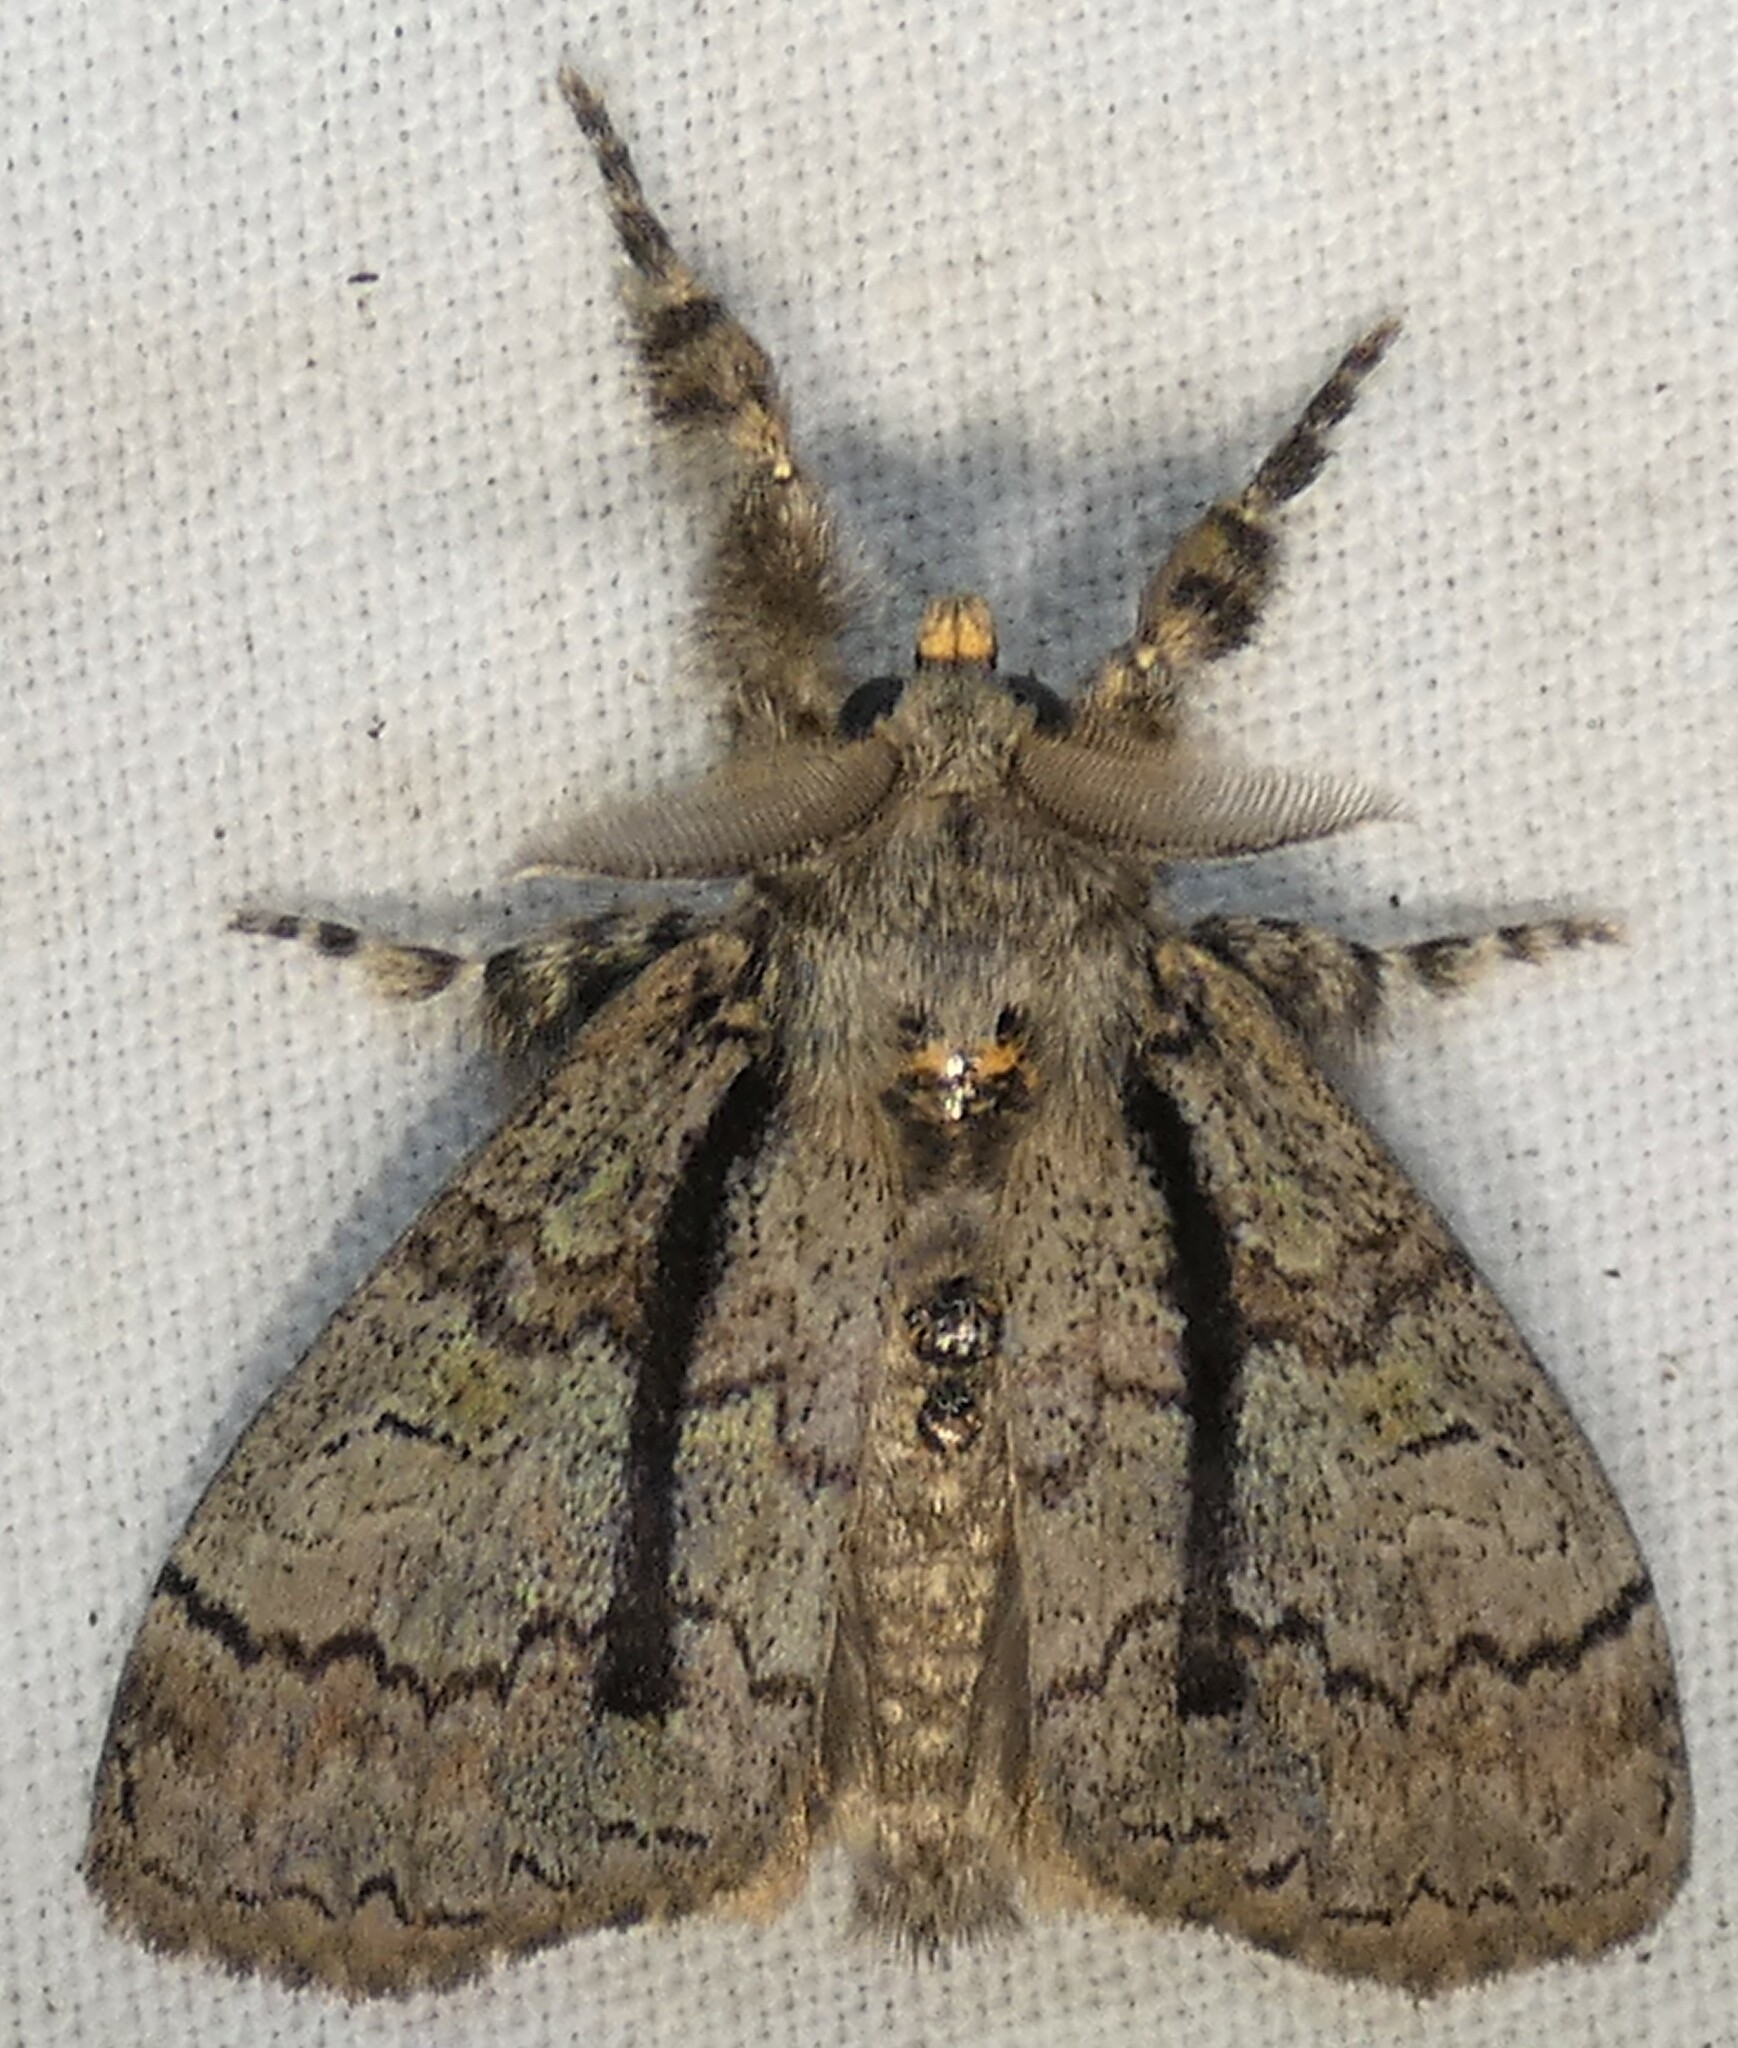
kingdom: Animalia
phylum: Arthropoda
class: Insecta
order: Lepidoptera
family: Erebidae
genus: Dasychira
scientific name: Dasychira tephra
